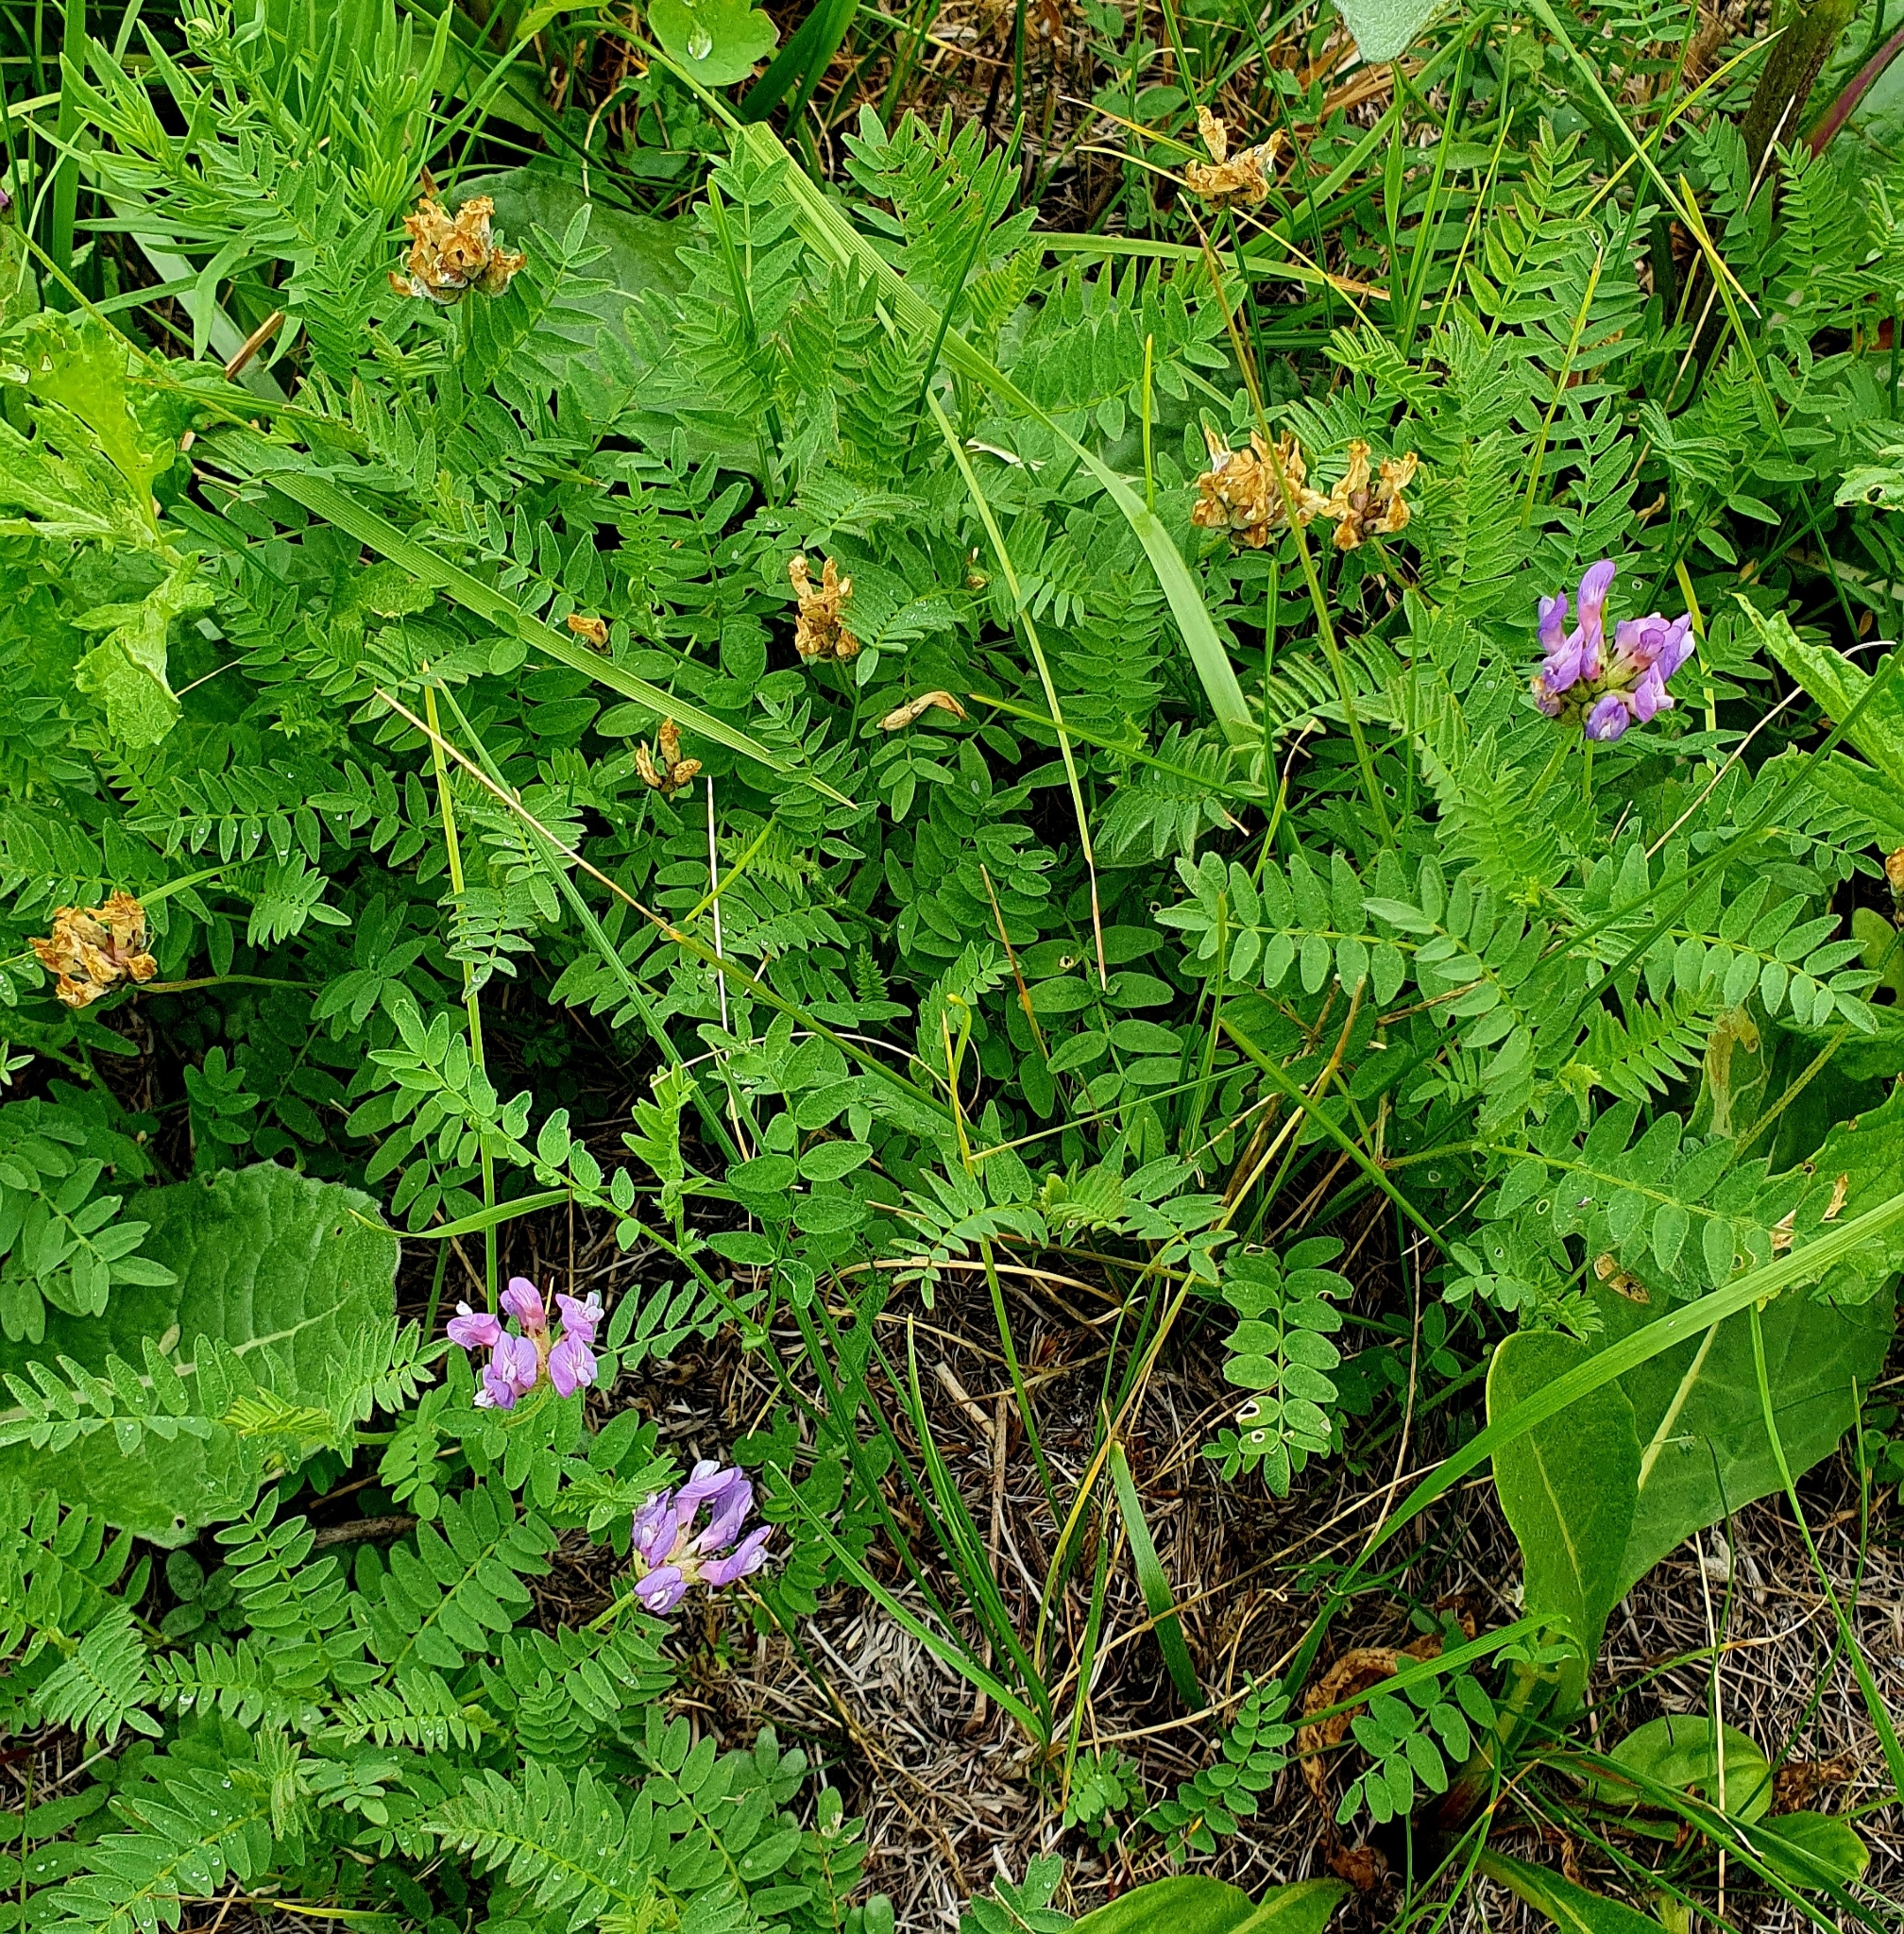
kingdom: Plantae
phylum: Tracheophyta
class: Magnoliopsida
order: Fabales
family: Fabaceae
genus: Astragalus
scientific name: Astragalus danicus
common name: Purple milk-vetch
